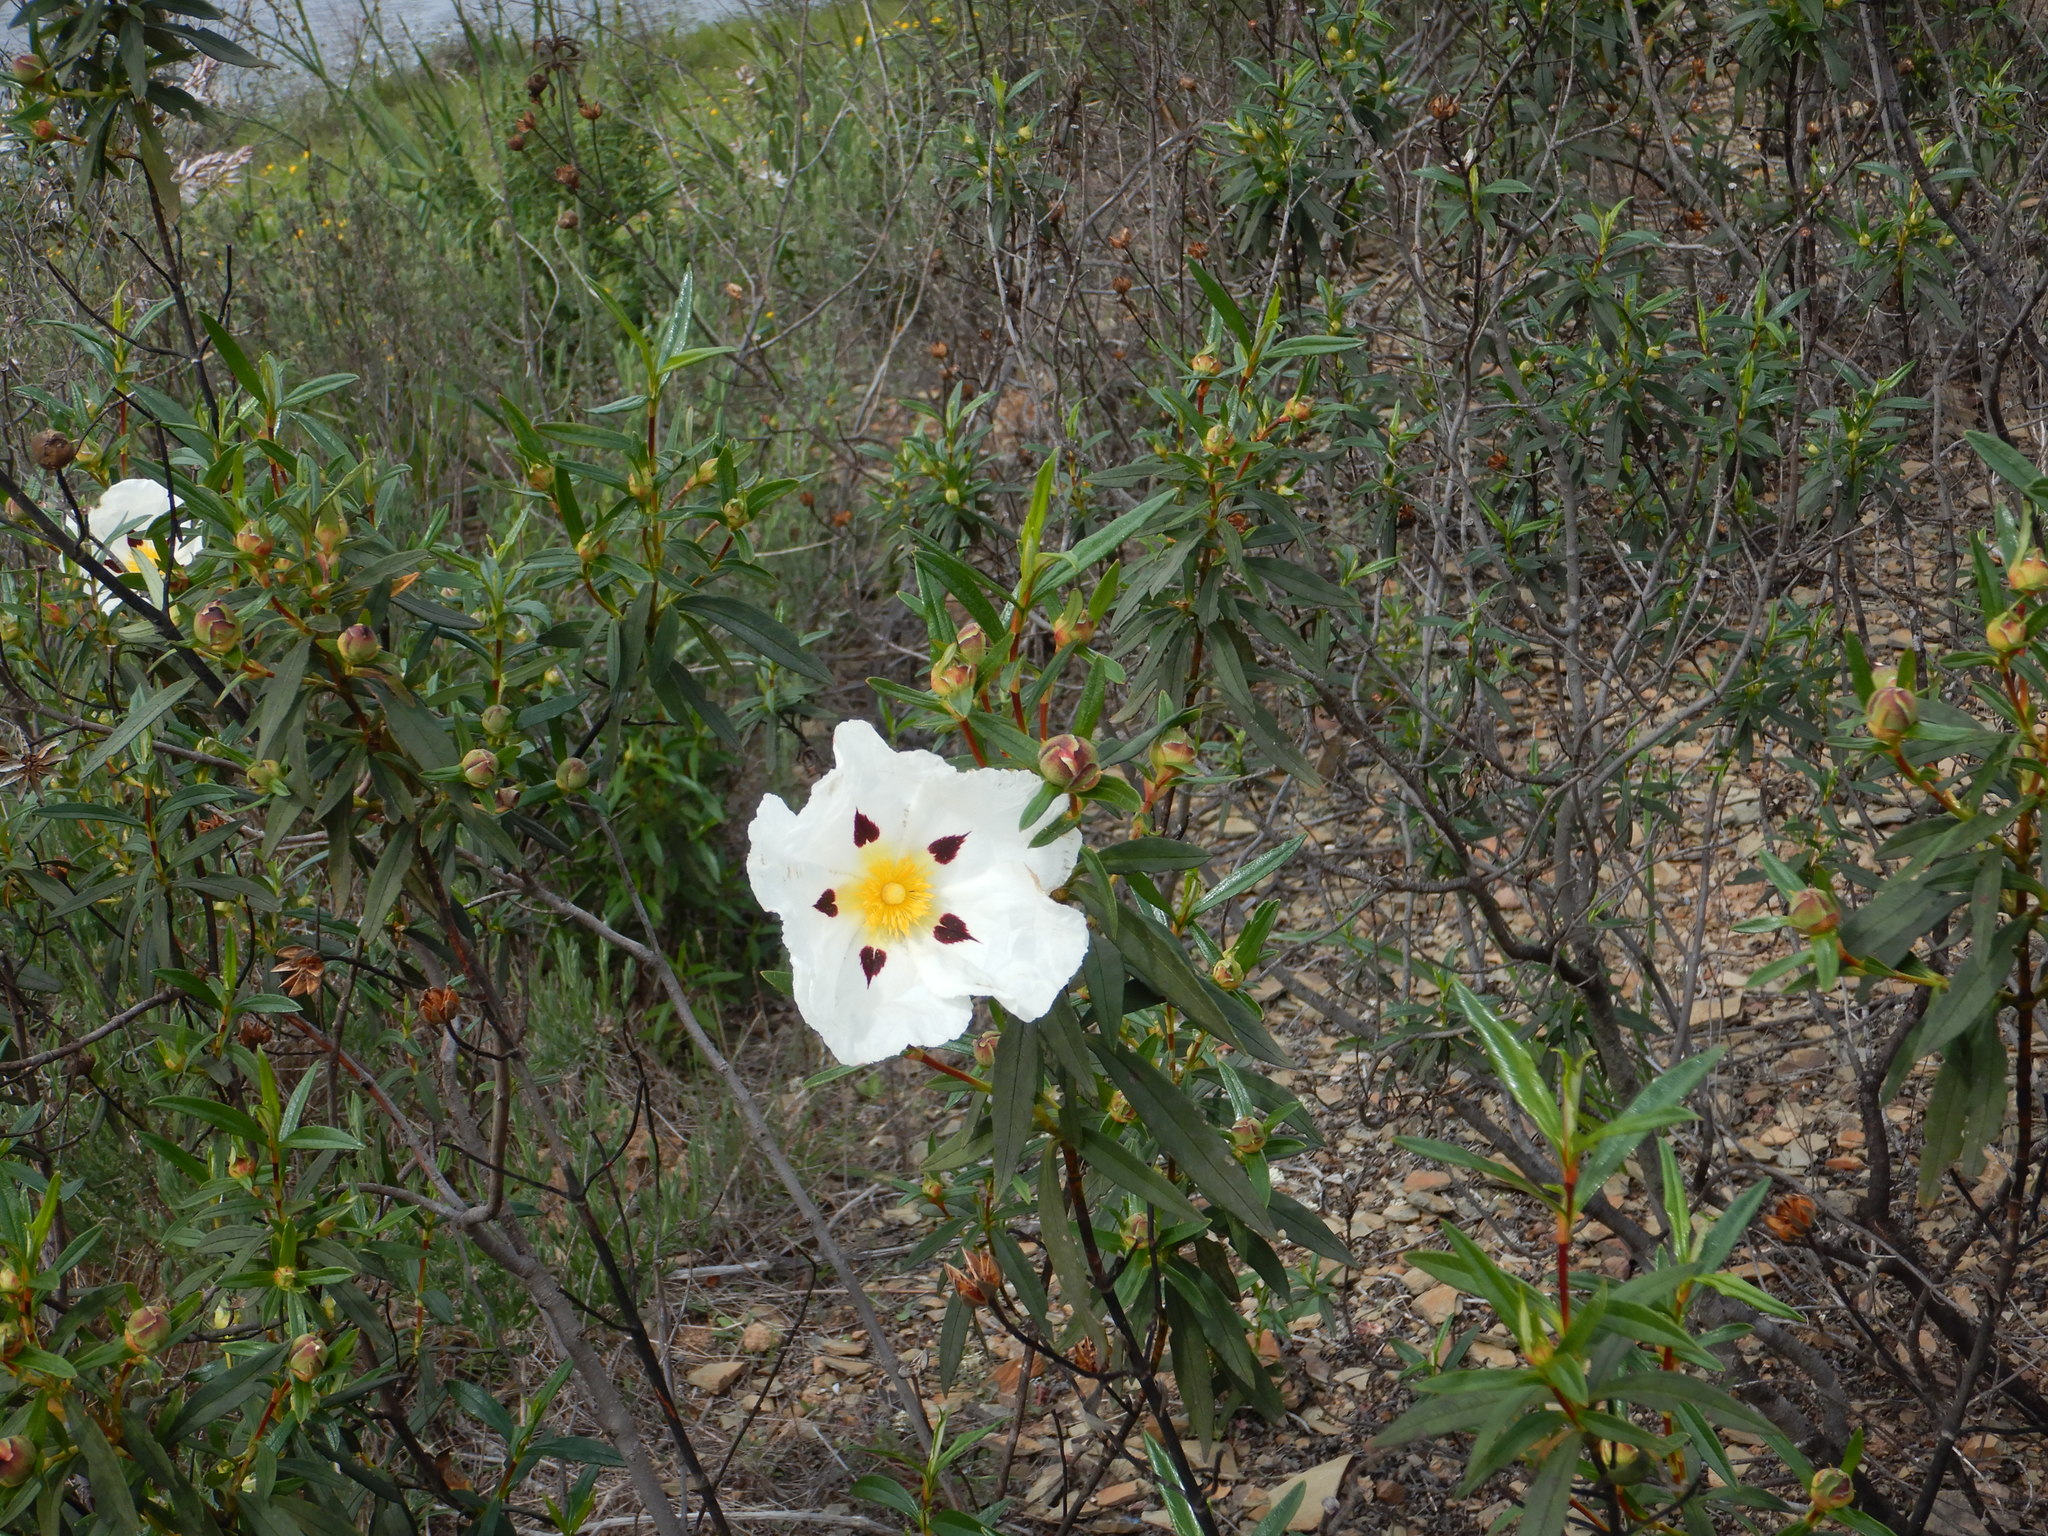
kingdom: Plantae
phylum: Tracheophyta
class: Magnoliopsida
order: Malvales
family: Cistaceae
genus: Cistus
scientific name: Cistus ladanifer
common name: Common gum cistus
